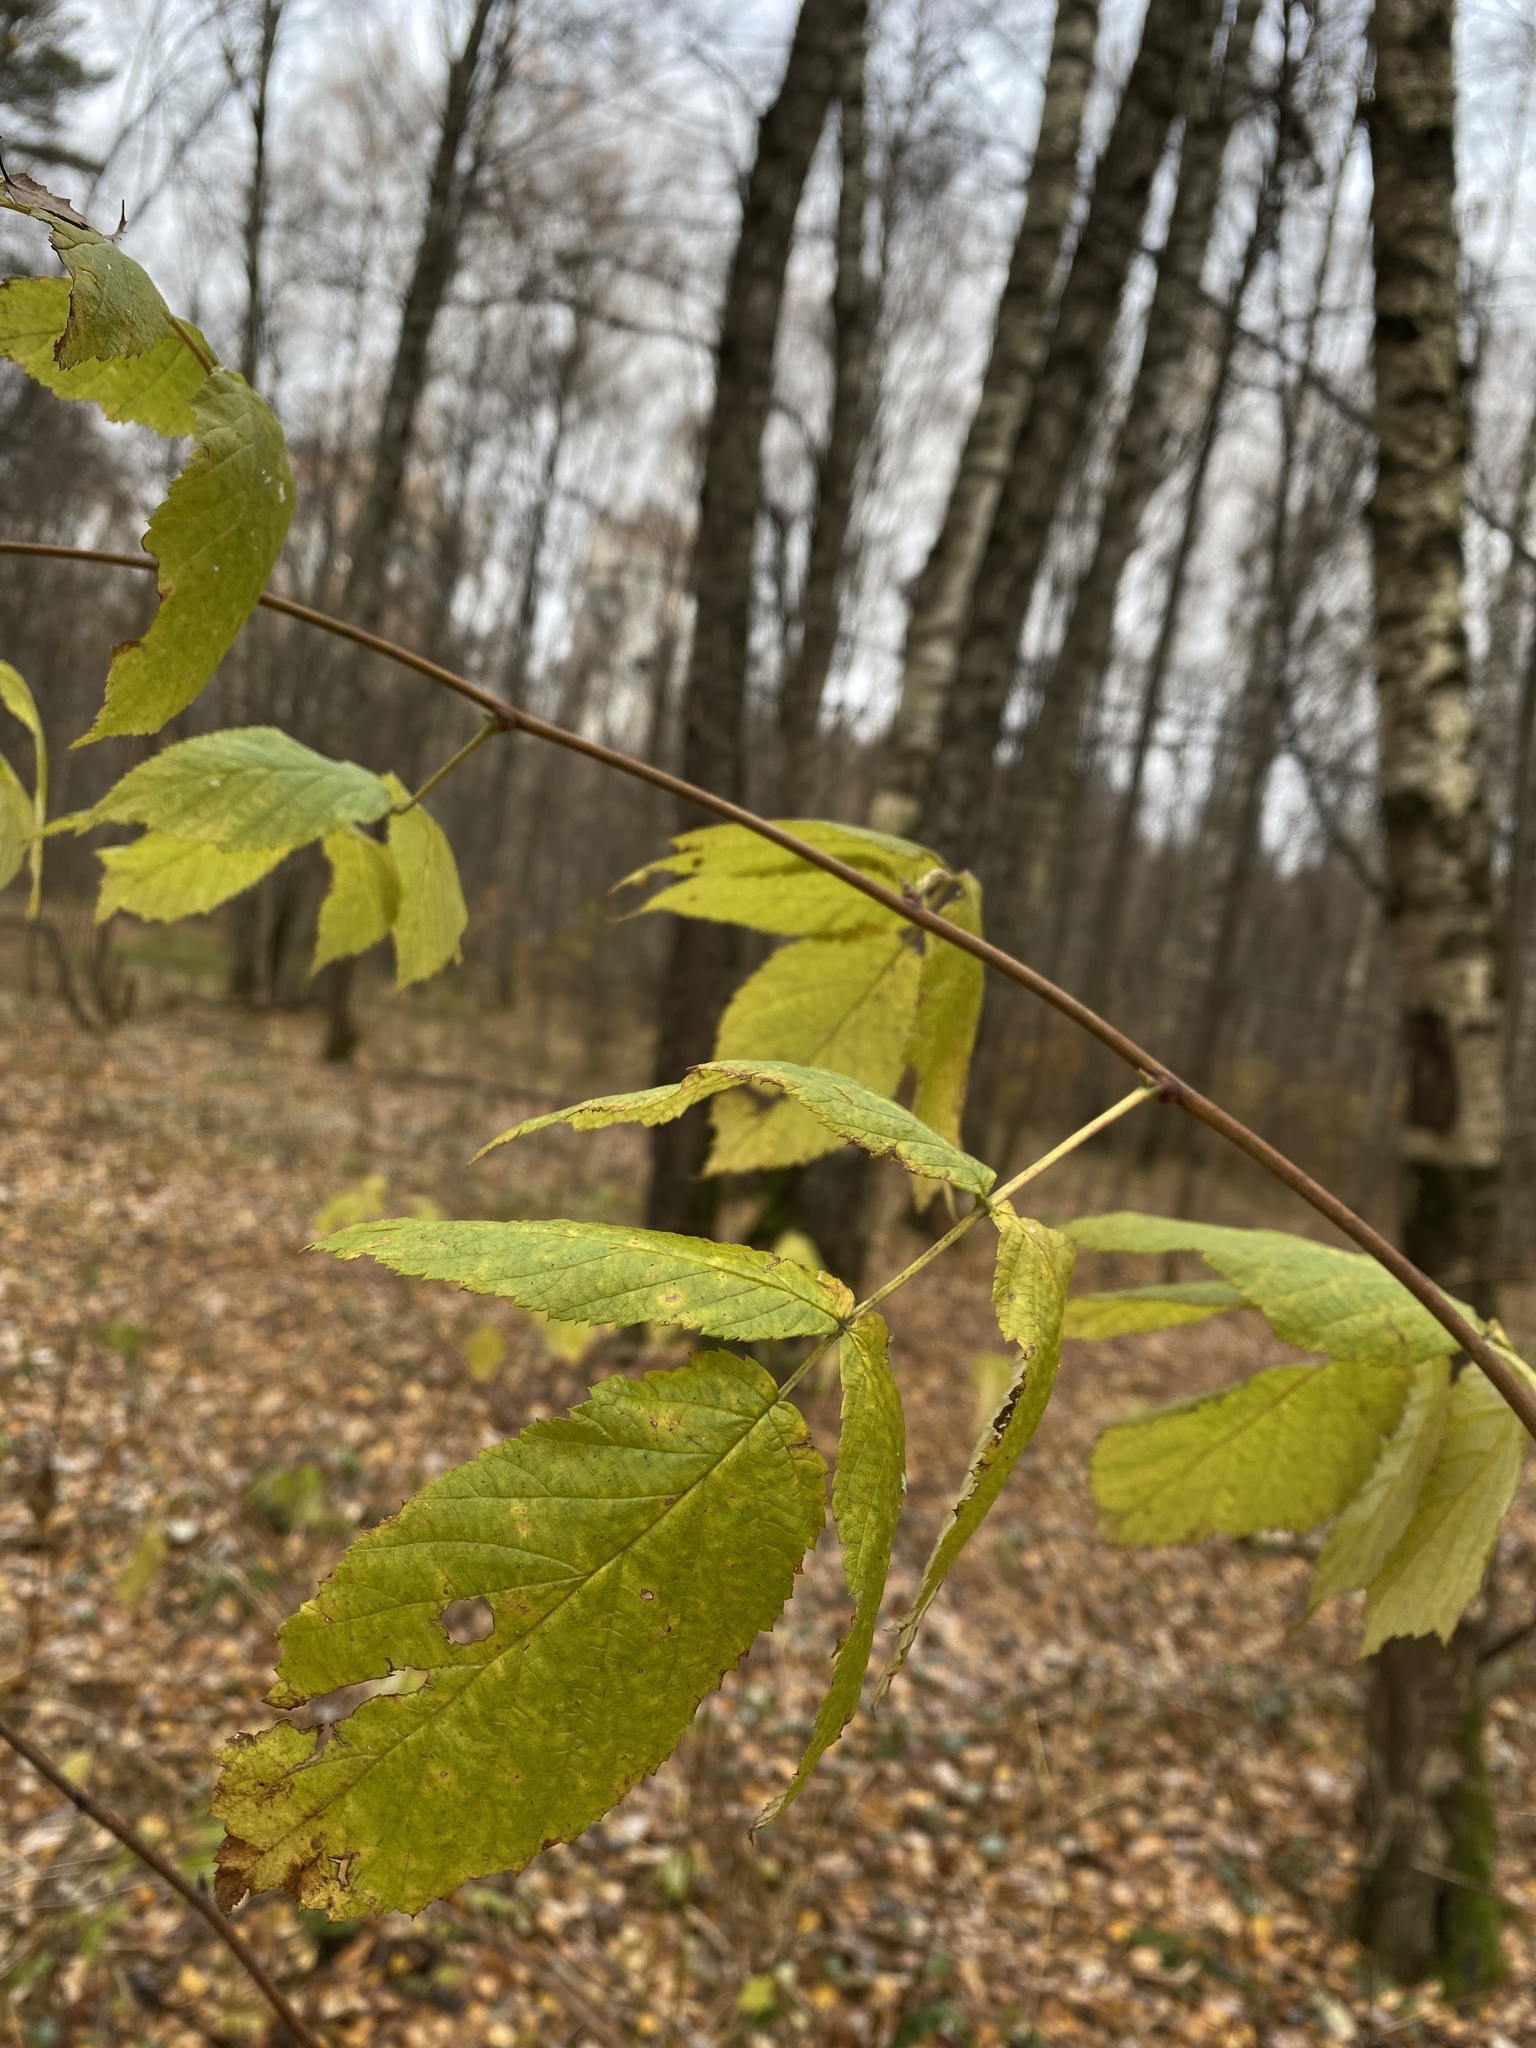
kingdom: Plantae
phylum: Tracheophyta
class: Magnoliopsida
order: Rosales
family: Rosaceae
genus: Rubus
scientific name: Rubus idaeus
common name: Raspberry
